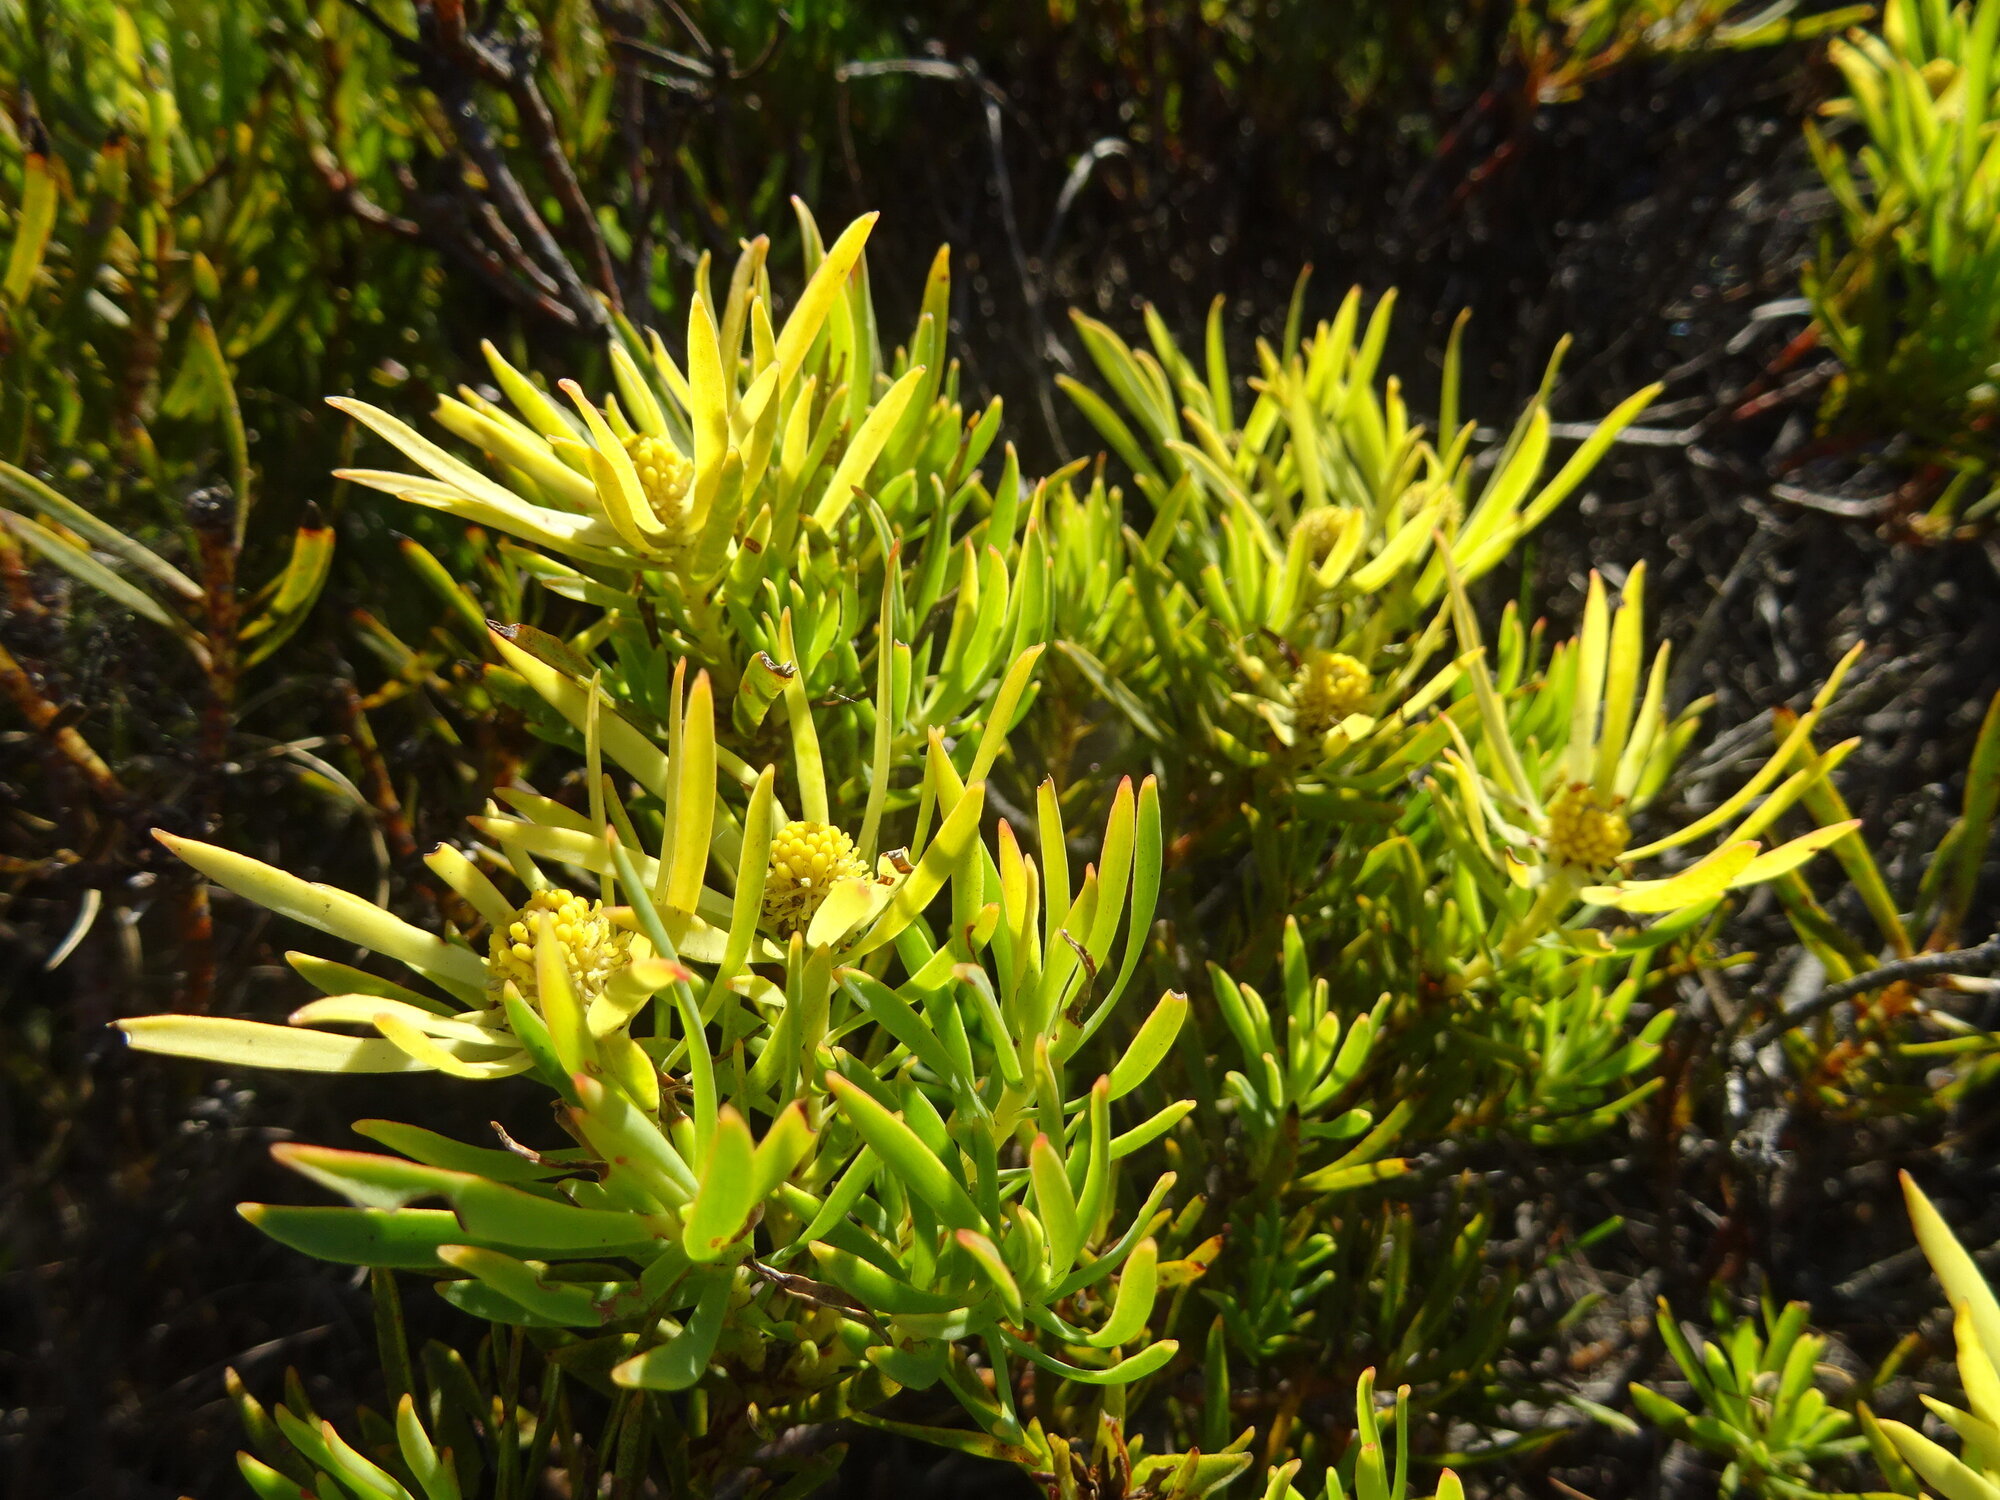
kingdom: Plantae
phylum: Tracheophyta
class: Magnoliopsida
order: Proteales
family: Proteaceae
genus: Leucadendron
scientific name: Leucadendron salignum
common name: Common sunshine conebush
